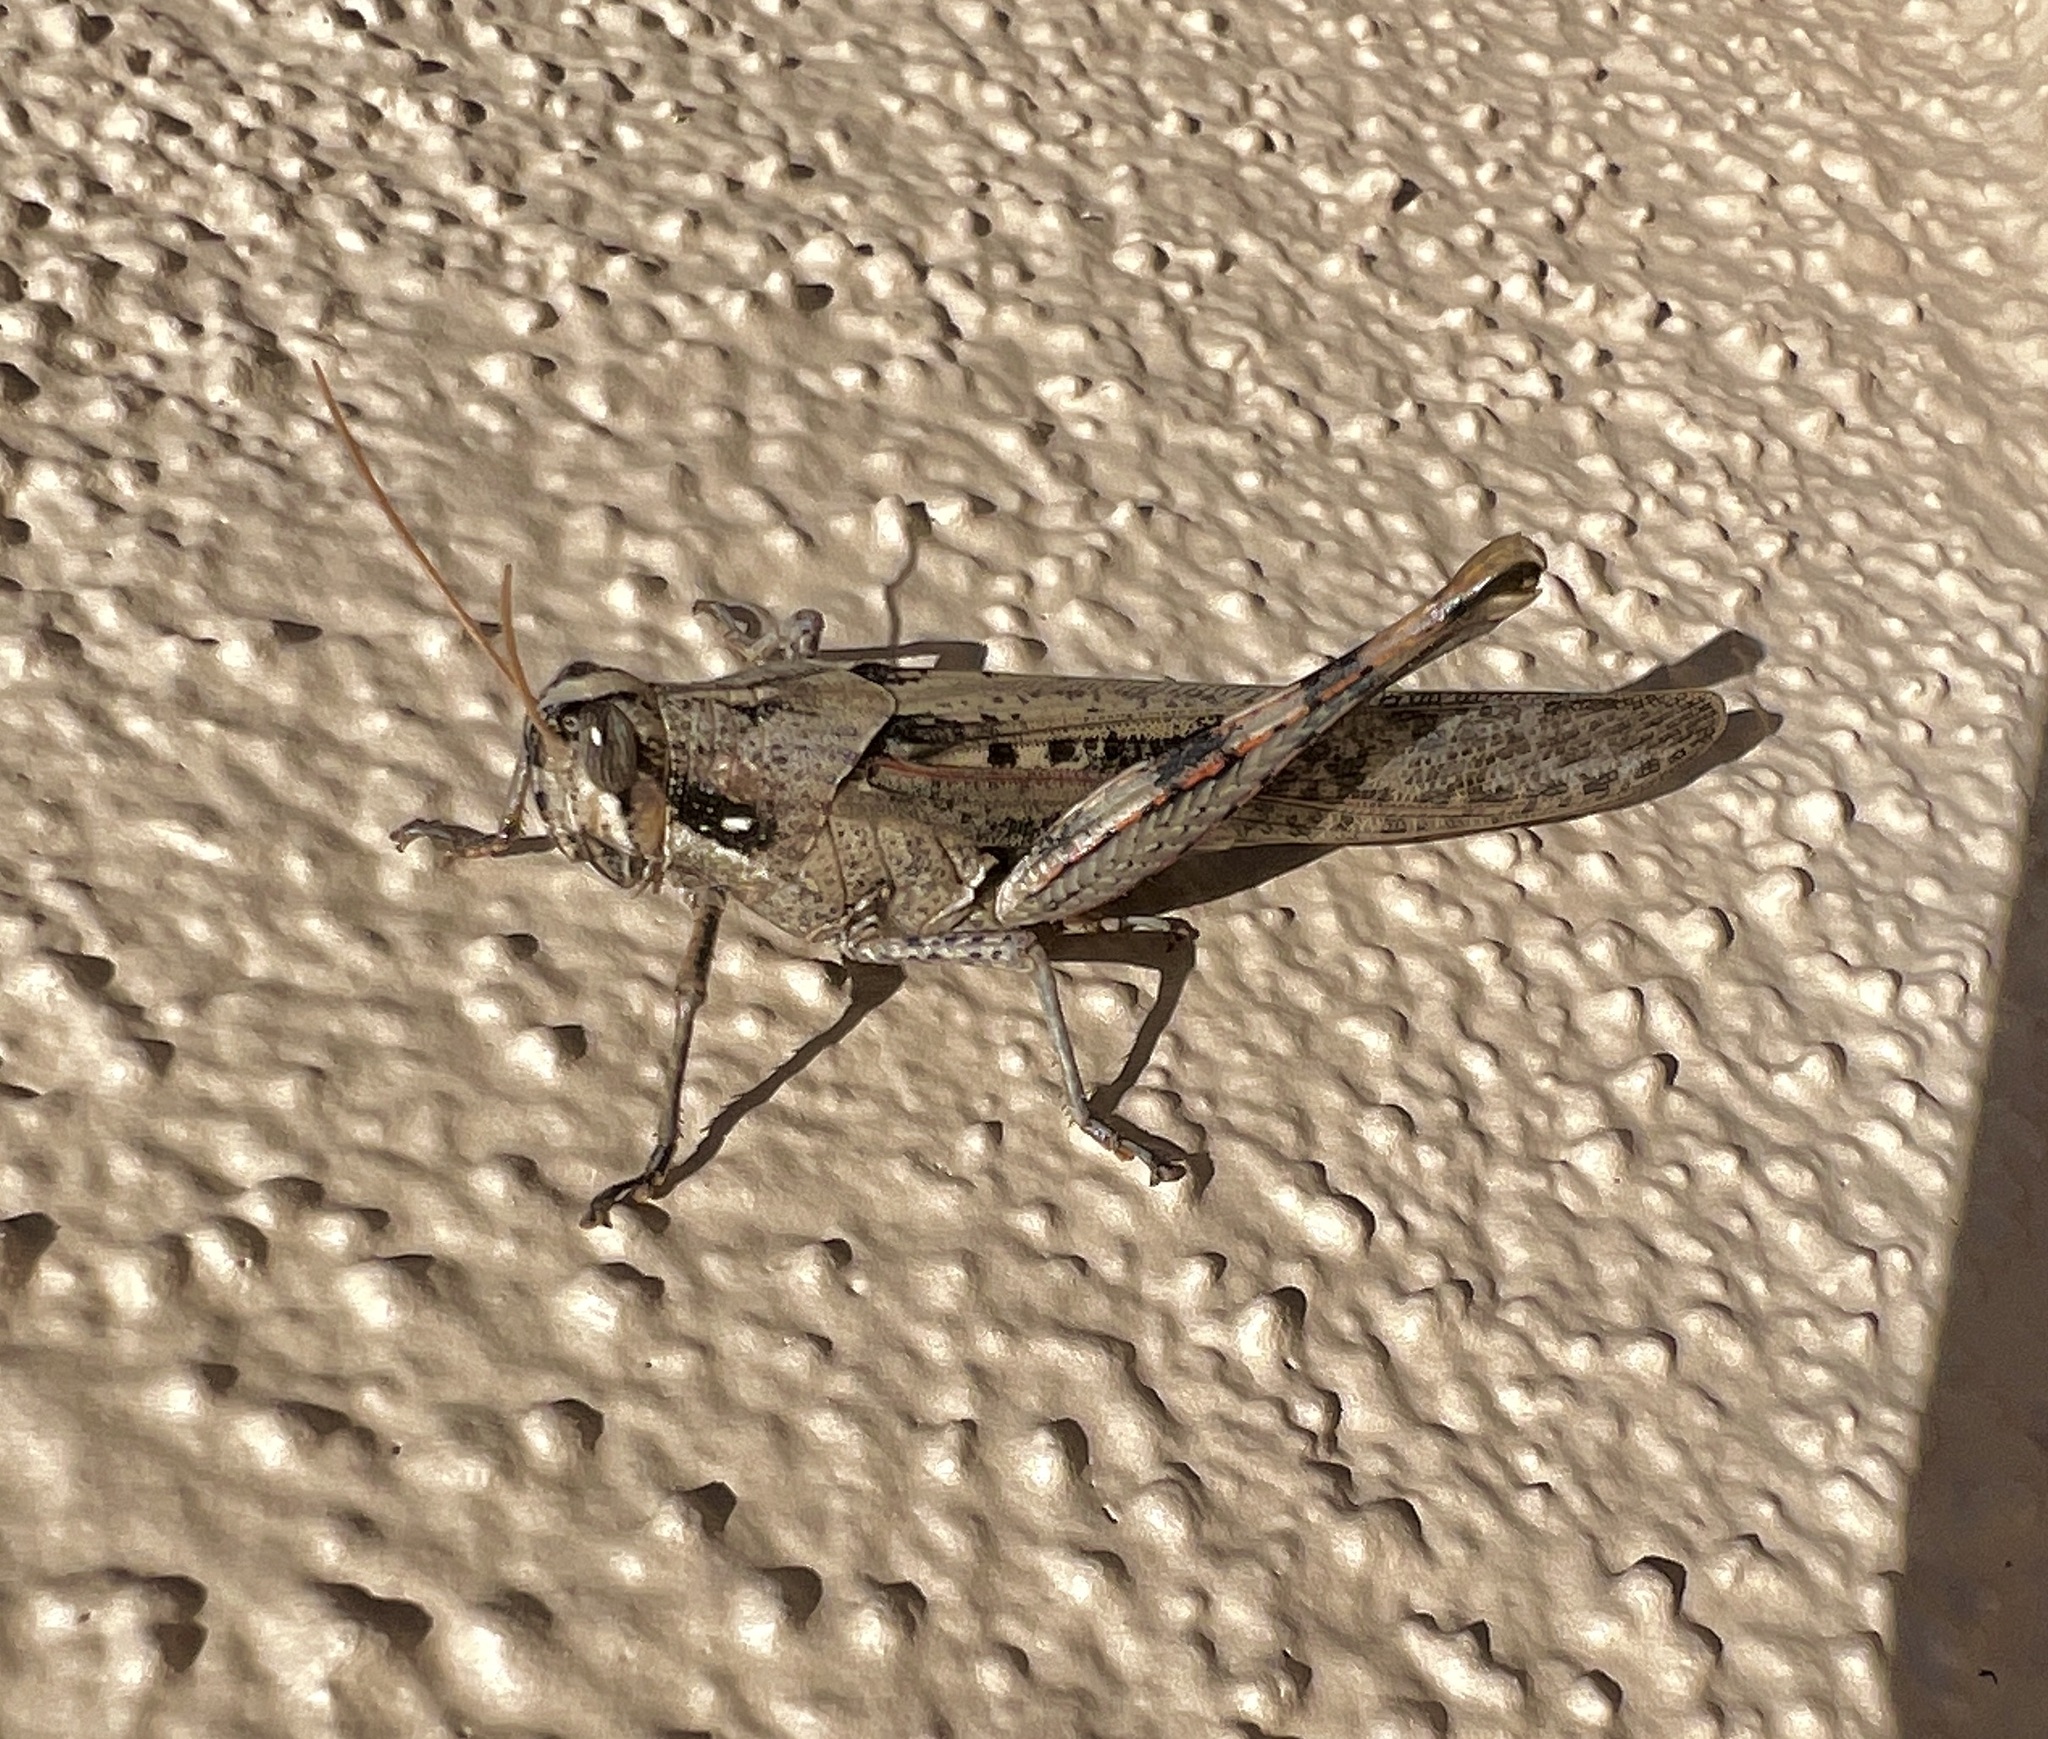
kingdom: Animalia
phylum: Arthropoda
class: Insecta
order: Orthoptera
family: Acrididae
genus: Schistocerca
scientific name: Schistocerca nitens
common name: Vagrant grasshopper
